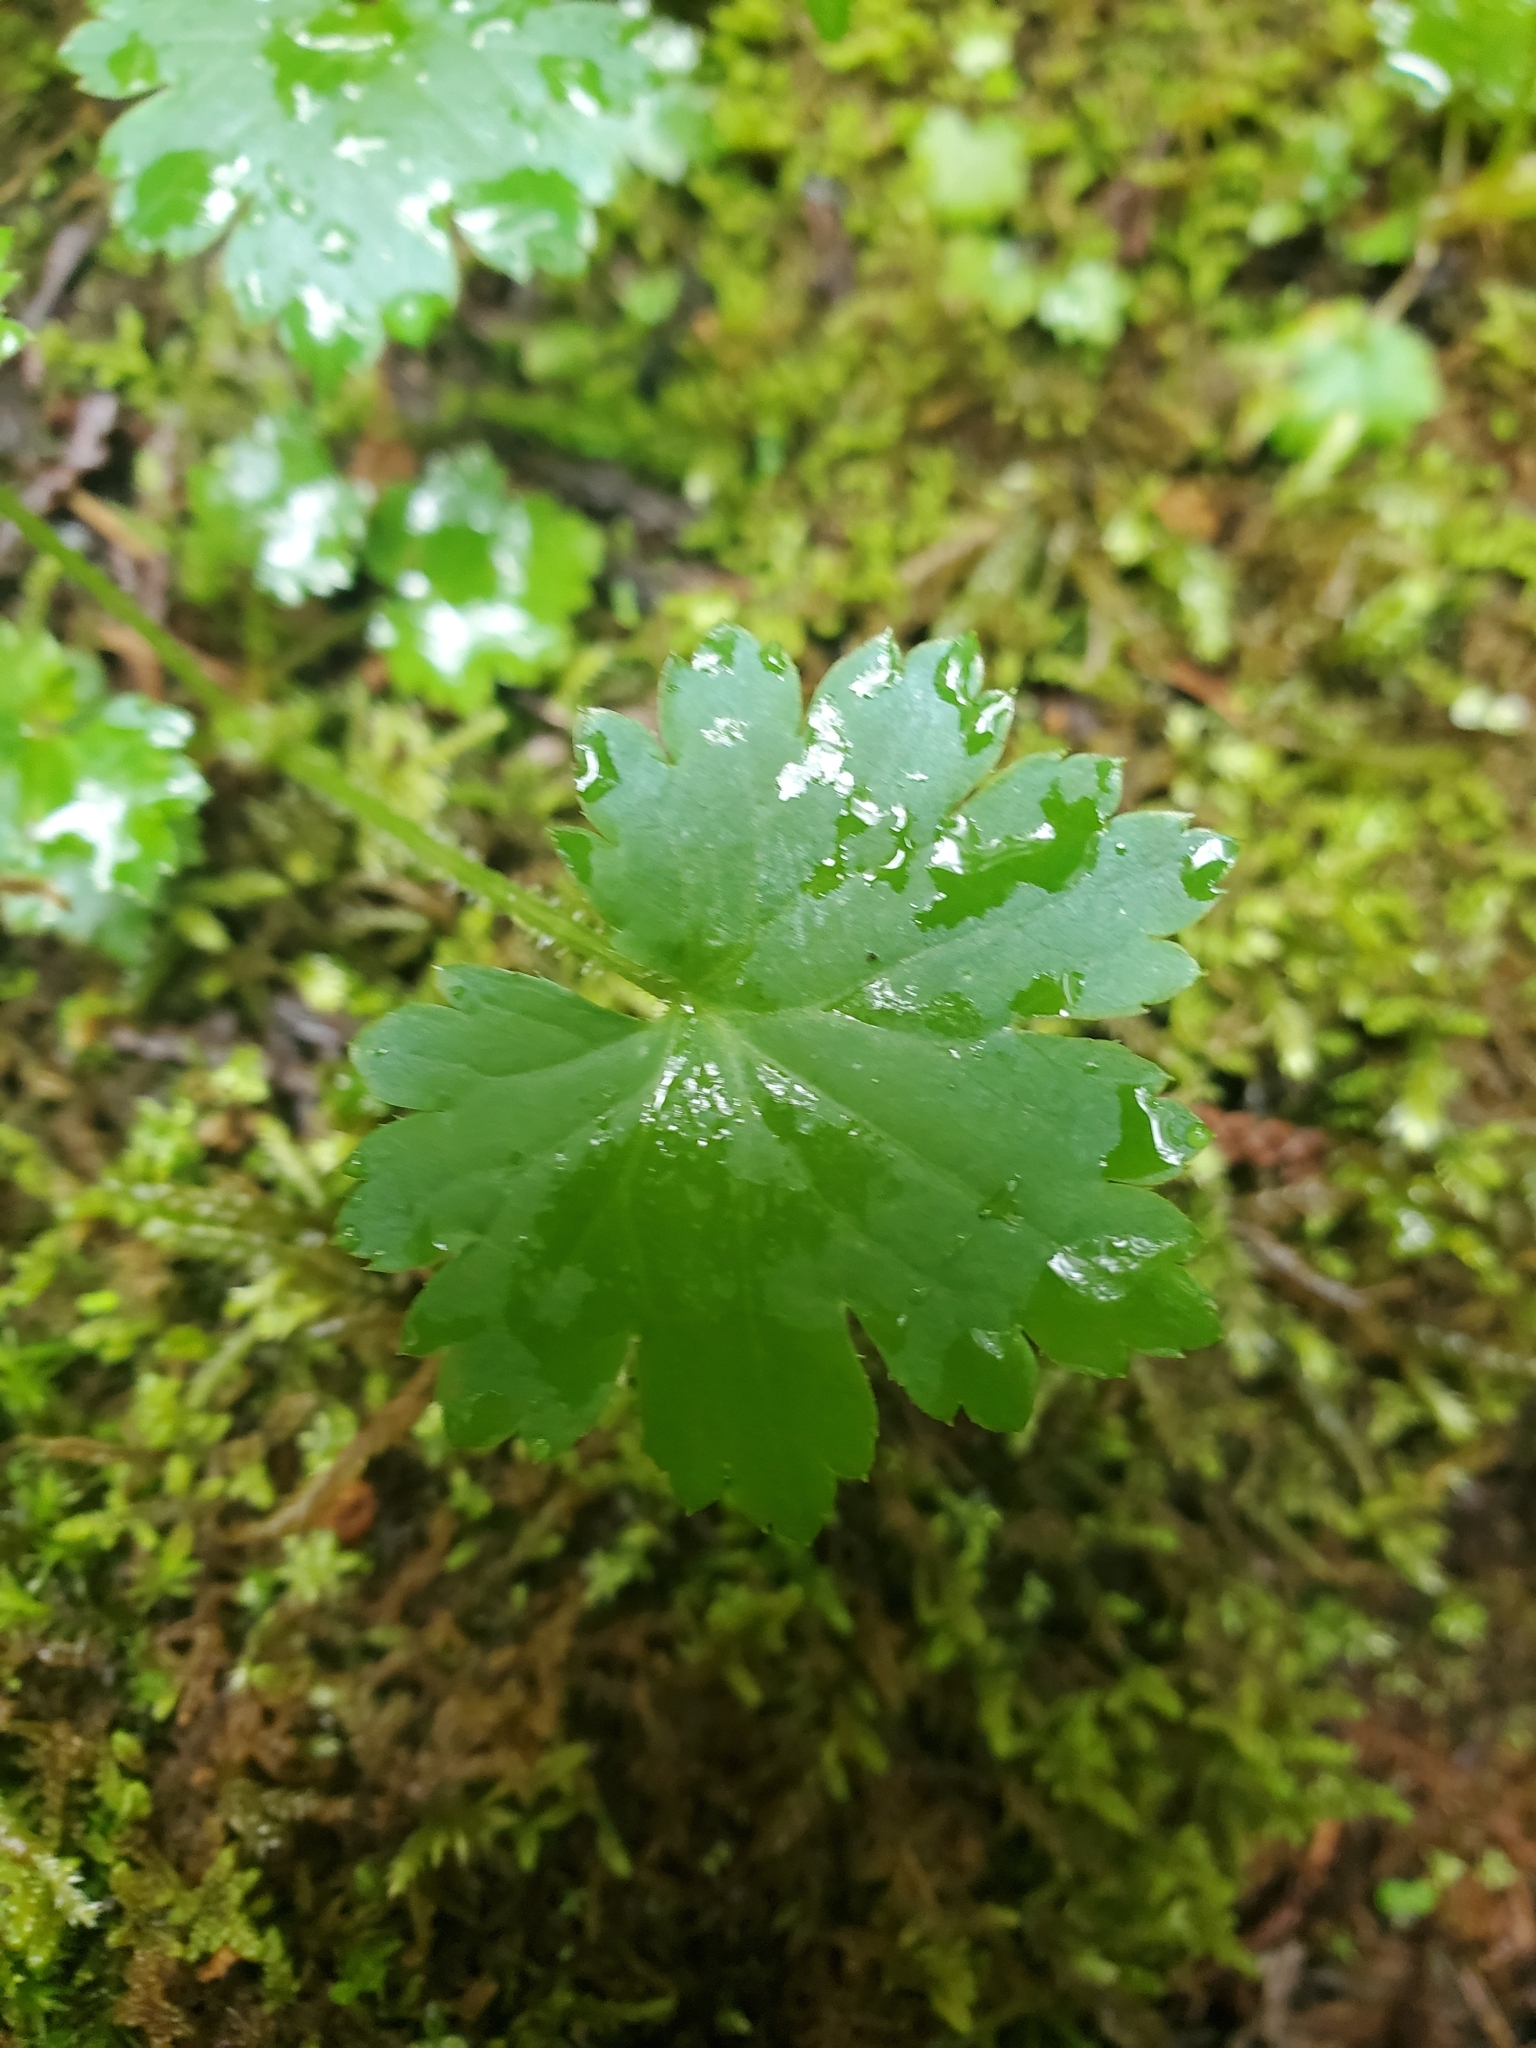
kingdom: Plantae
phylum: Tracheophyta
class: Magnoliopsida
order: Saxifragales
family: Saxifragaceae
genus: Boykinia
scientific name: Boykinia occidentalis
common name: Coast boykinia
